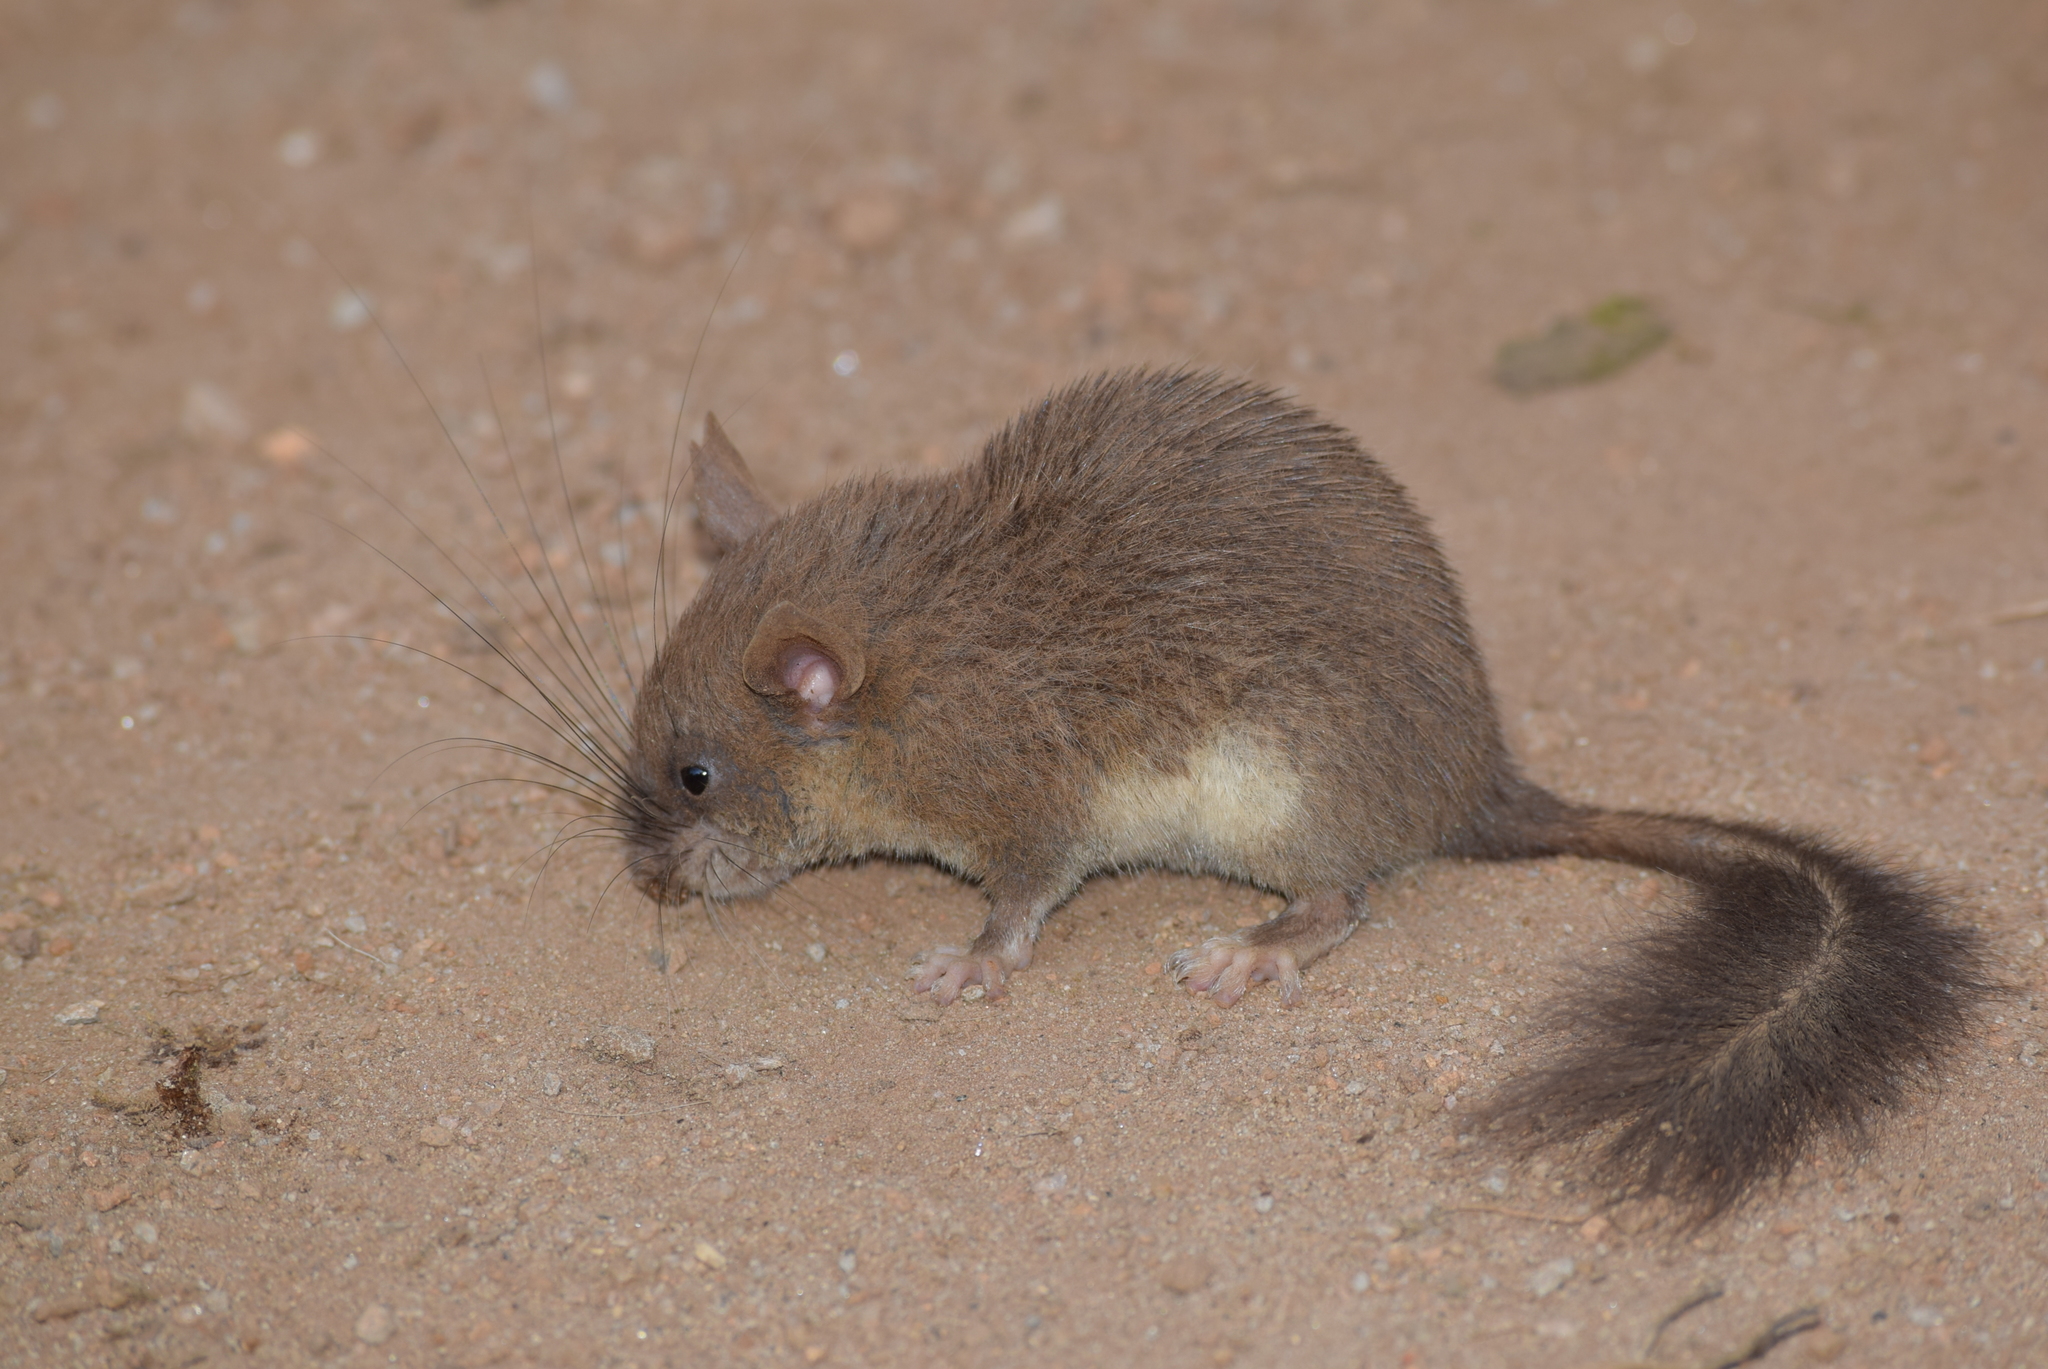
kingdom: Animalia
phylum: Chordata
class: Mammalia
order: Rodentia
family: Platacanthomyidae
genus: Platacanthomys
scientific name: Platacanthomys lasiurus
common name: Malabar spiny dormouse
